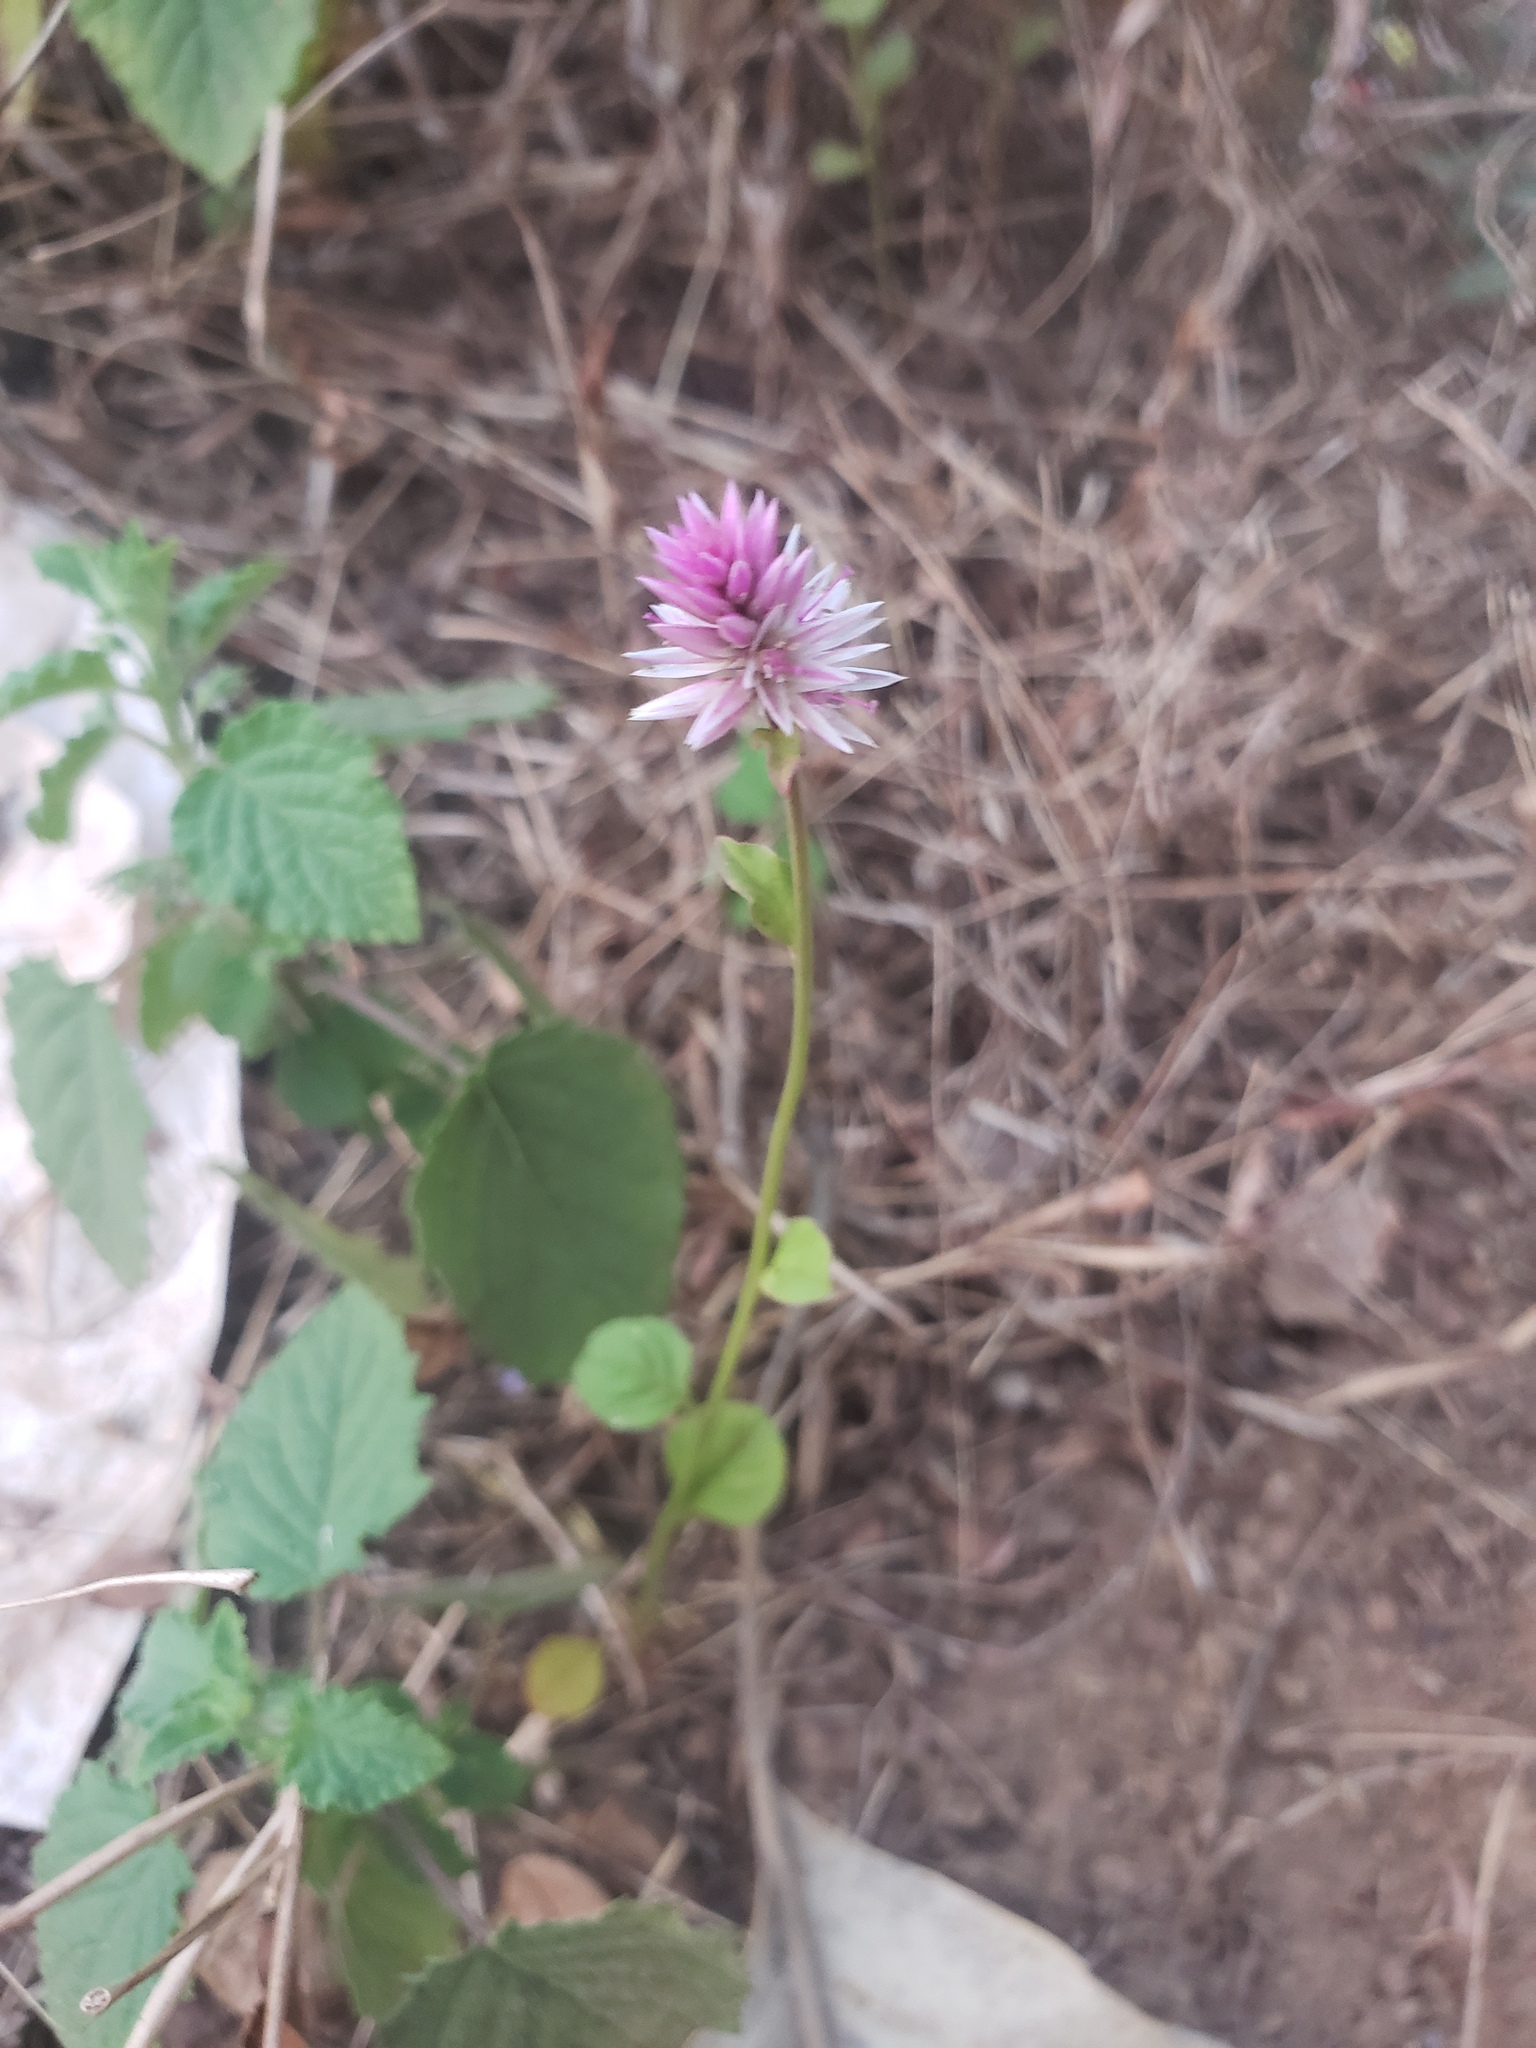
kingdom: Plantae
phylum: Tracheophyta
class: Magnoliopsida
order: Caryophyllales
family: Amaranthaceae
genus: Celosia
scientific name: Celosia argentea
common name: Feather cockscomb
